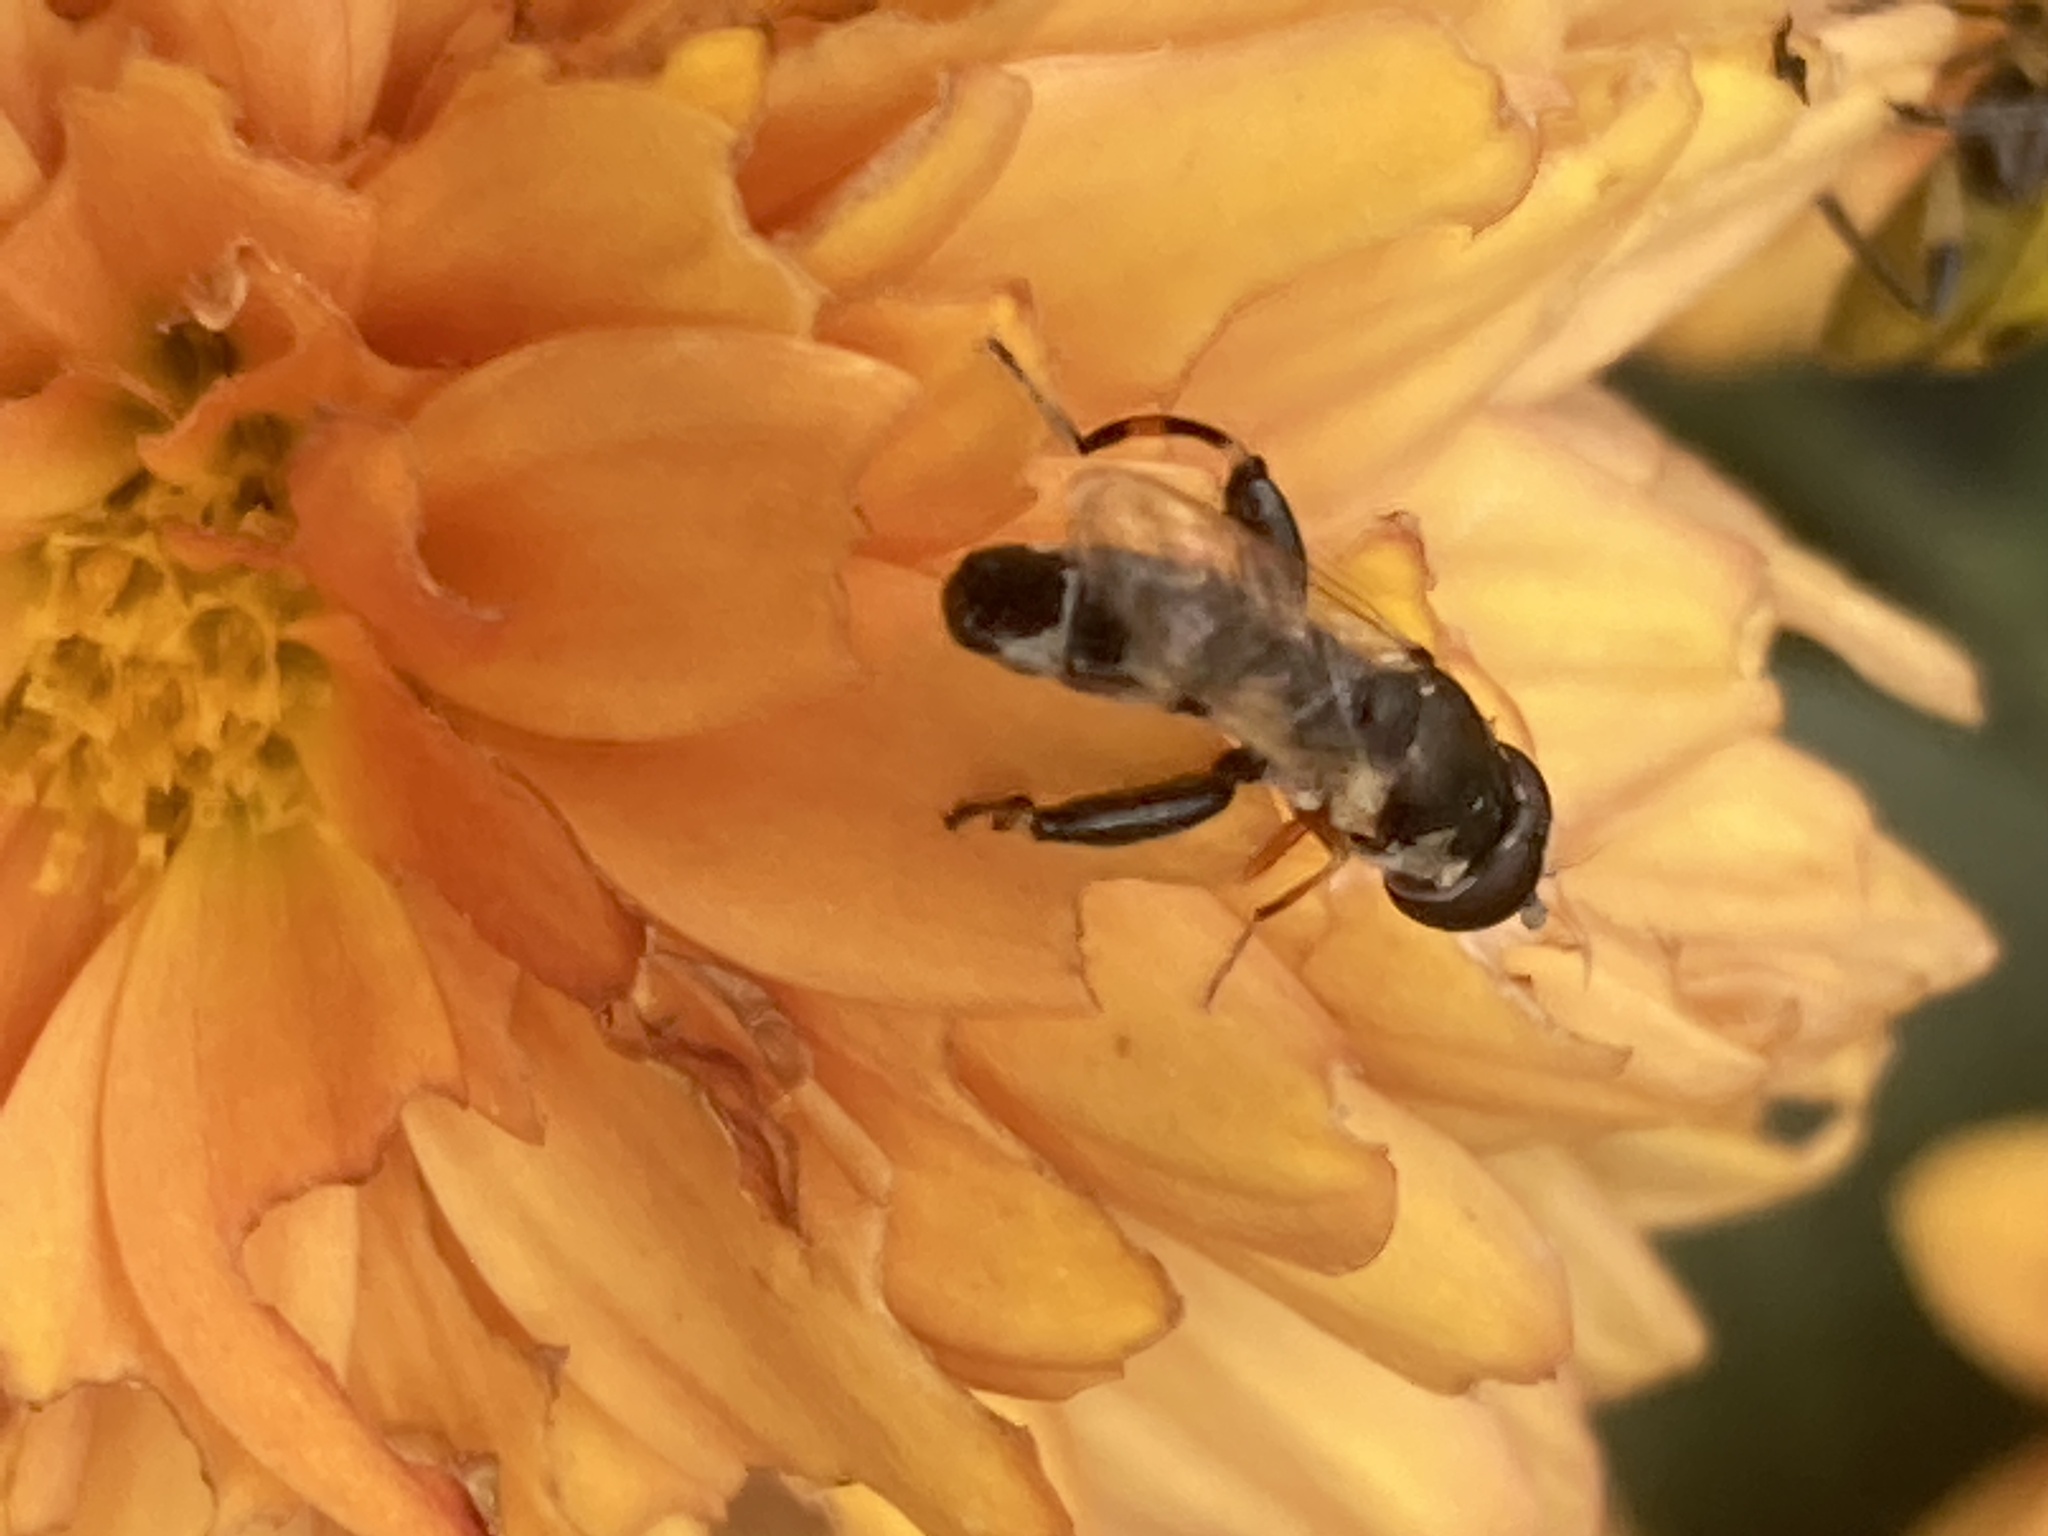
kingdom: Animalia
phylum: Arthropoda
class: Insecta
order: Diptera
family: Syrphidae
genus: Syritta
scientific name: Syritta flaviventris
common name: Syrphid fly
